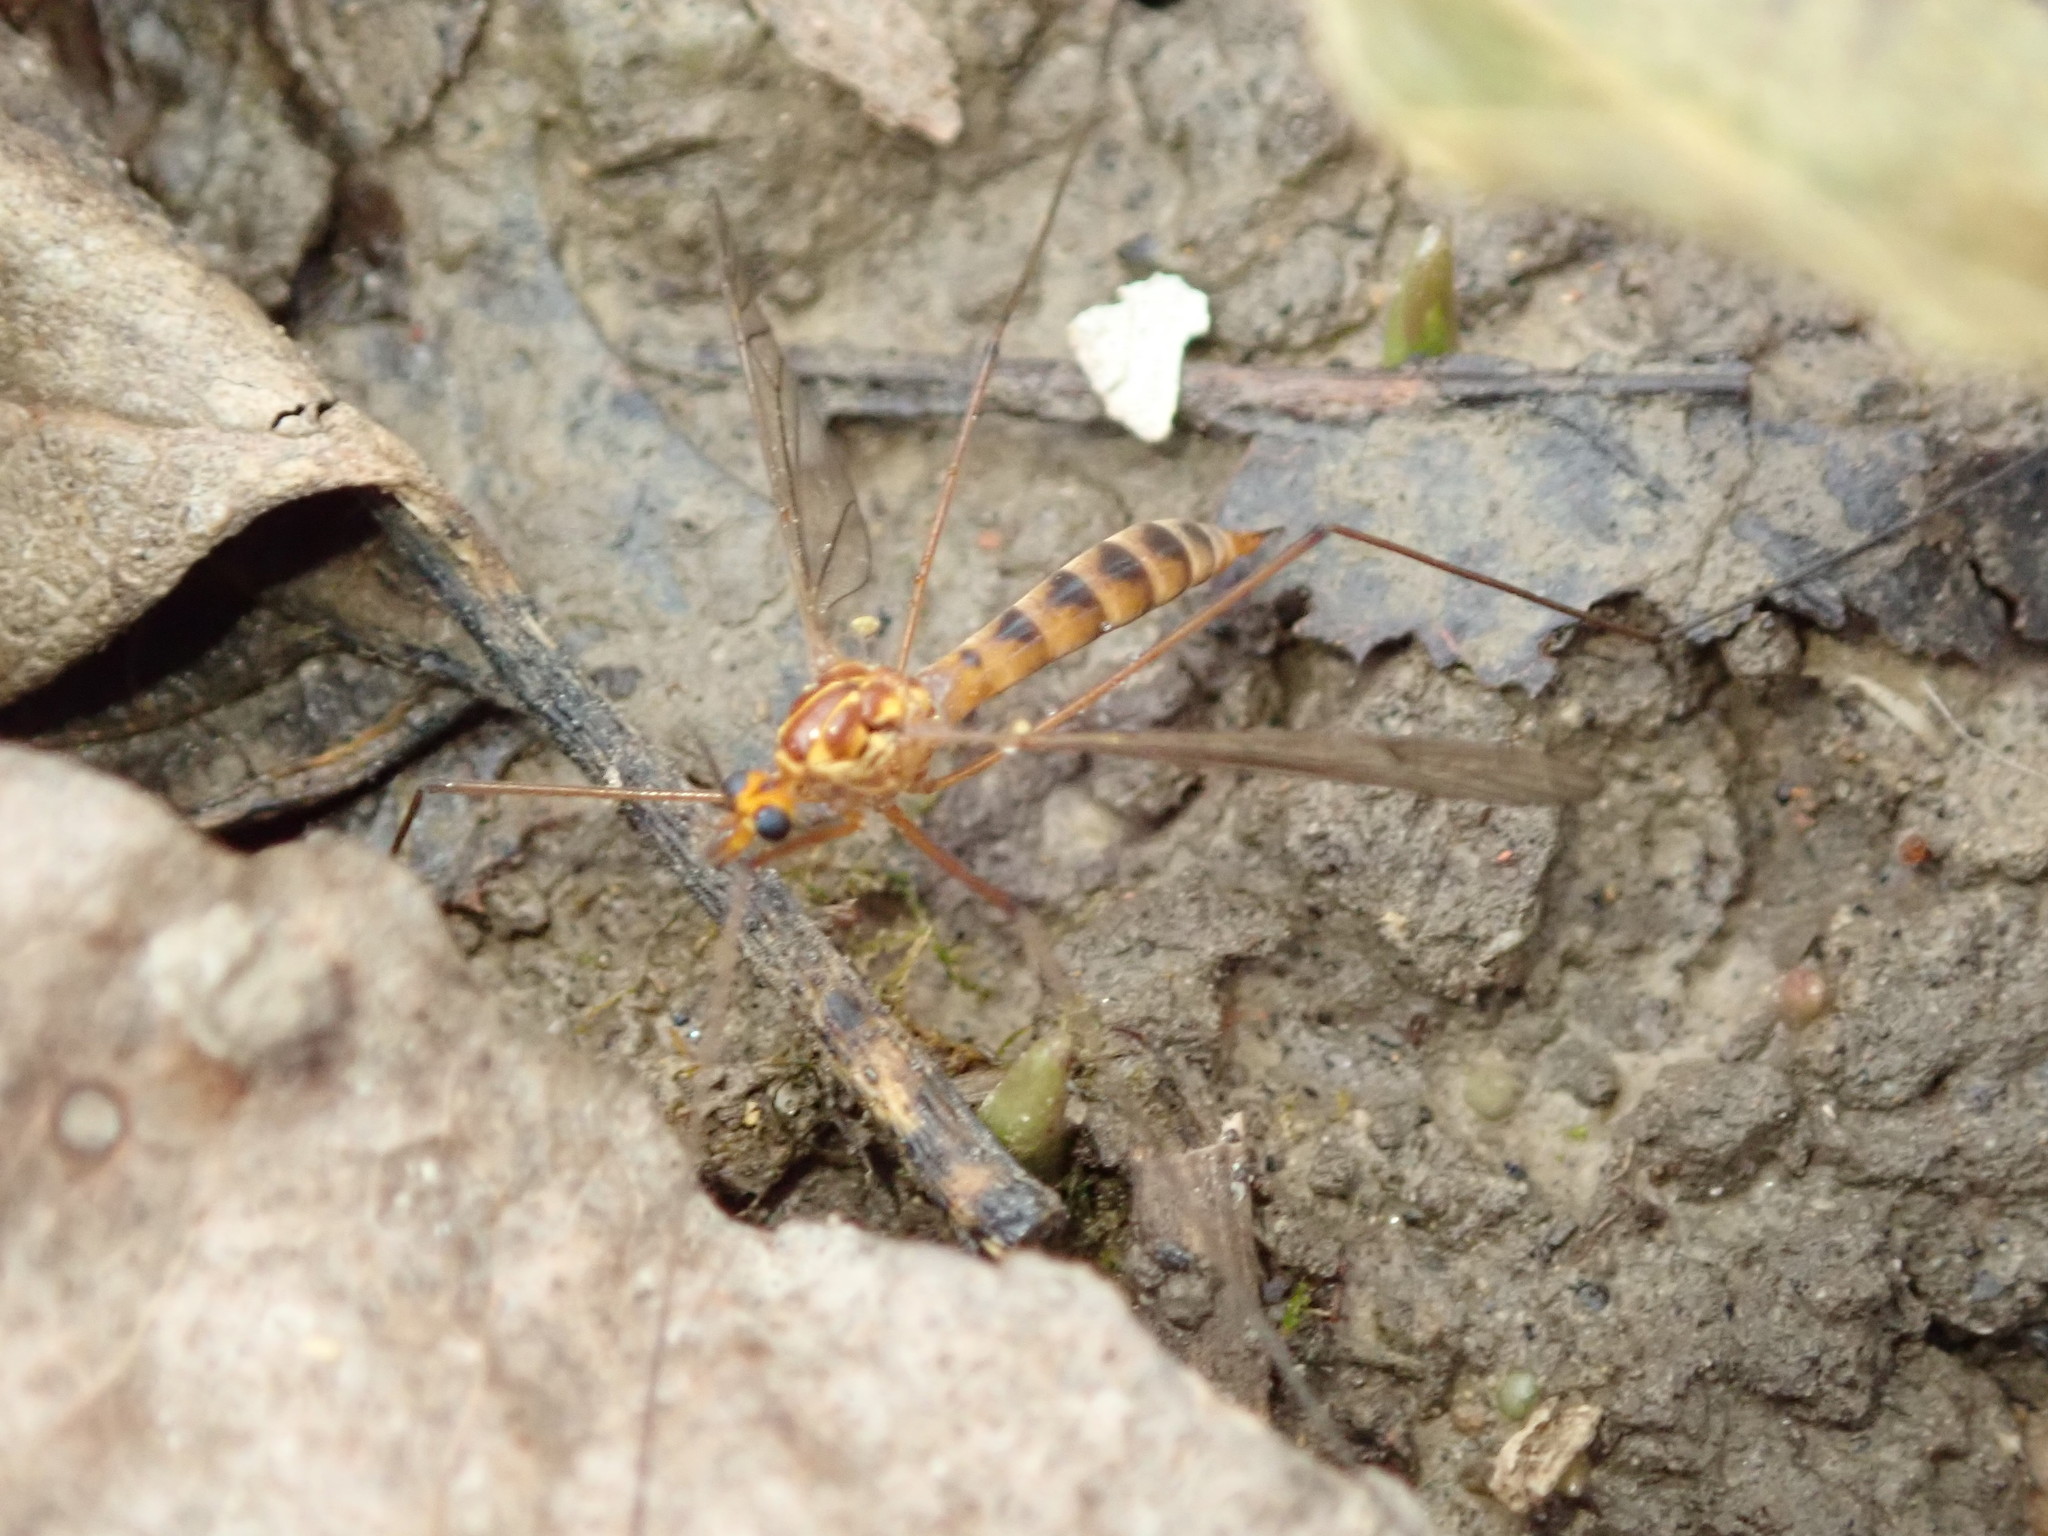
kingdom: Animalia
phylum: Arthropoda
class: Insecta
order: Diptera
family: Tipulidae
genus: Nephrotoma
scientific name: Nephrotoma ferruginea
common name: Ferruginous tiger crane fly
